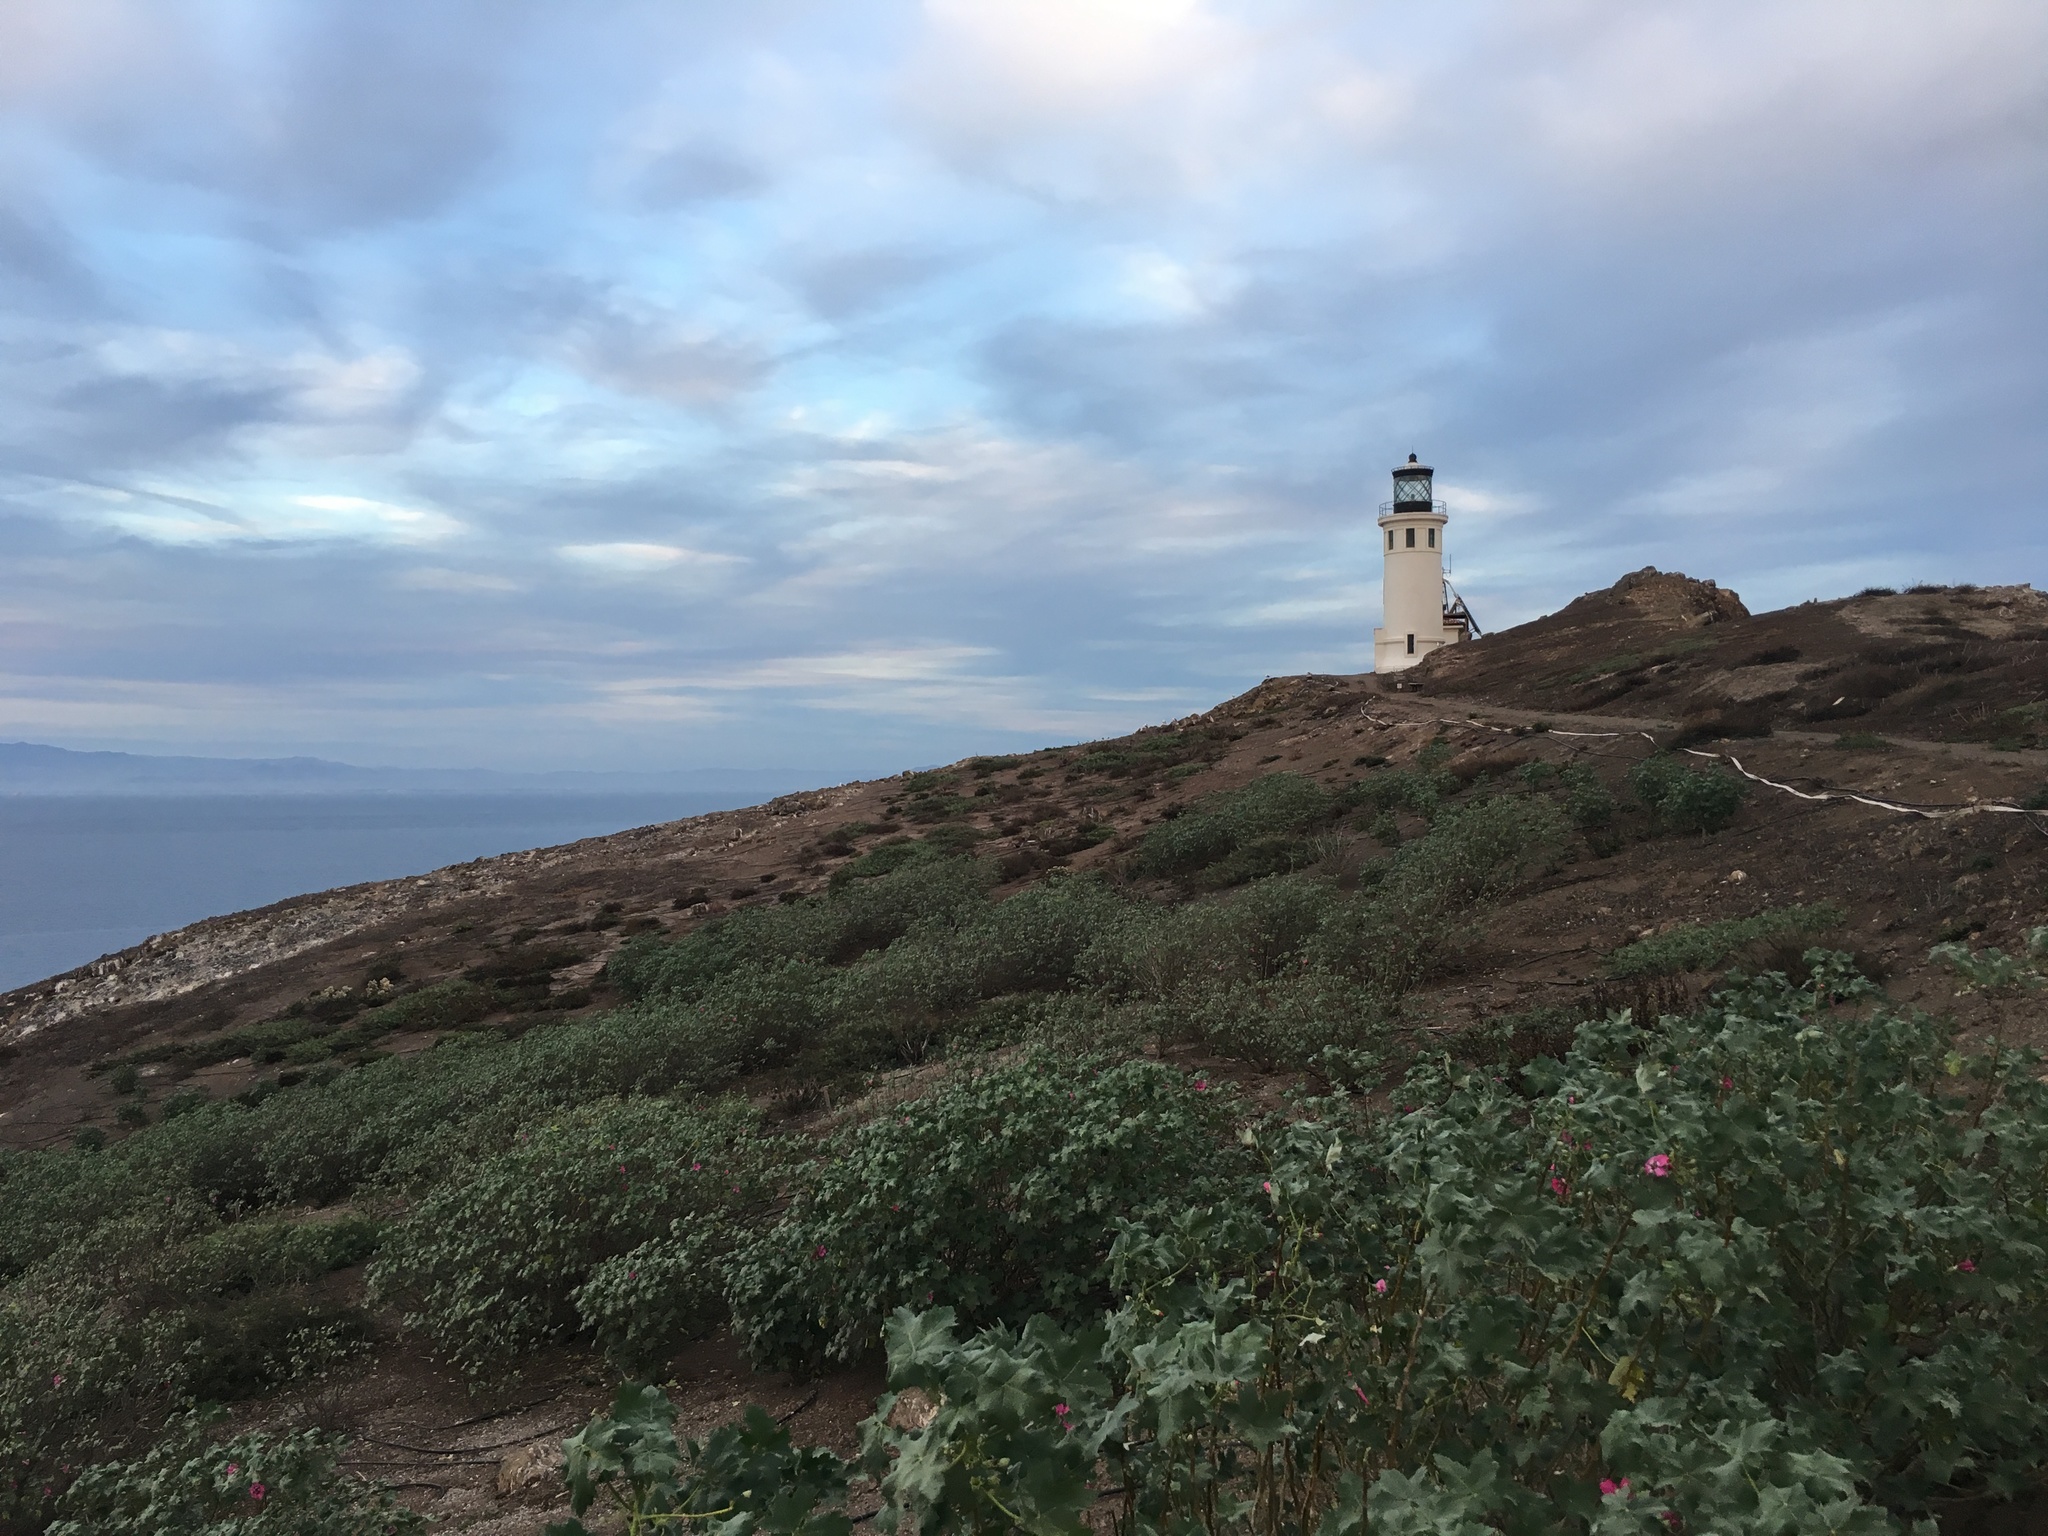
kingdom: Plantae
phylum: Tracheophyta
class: Magnoliopsida
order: Malvales
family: Malvaceae
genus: Malva
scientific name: Malva assurgentiflora
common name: Island mallow
